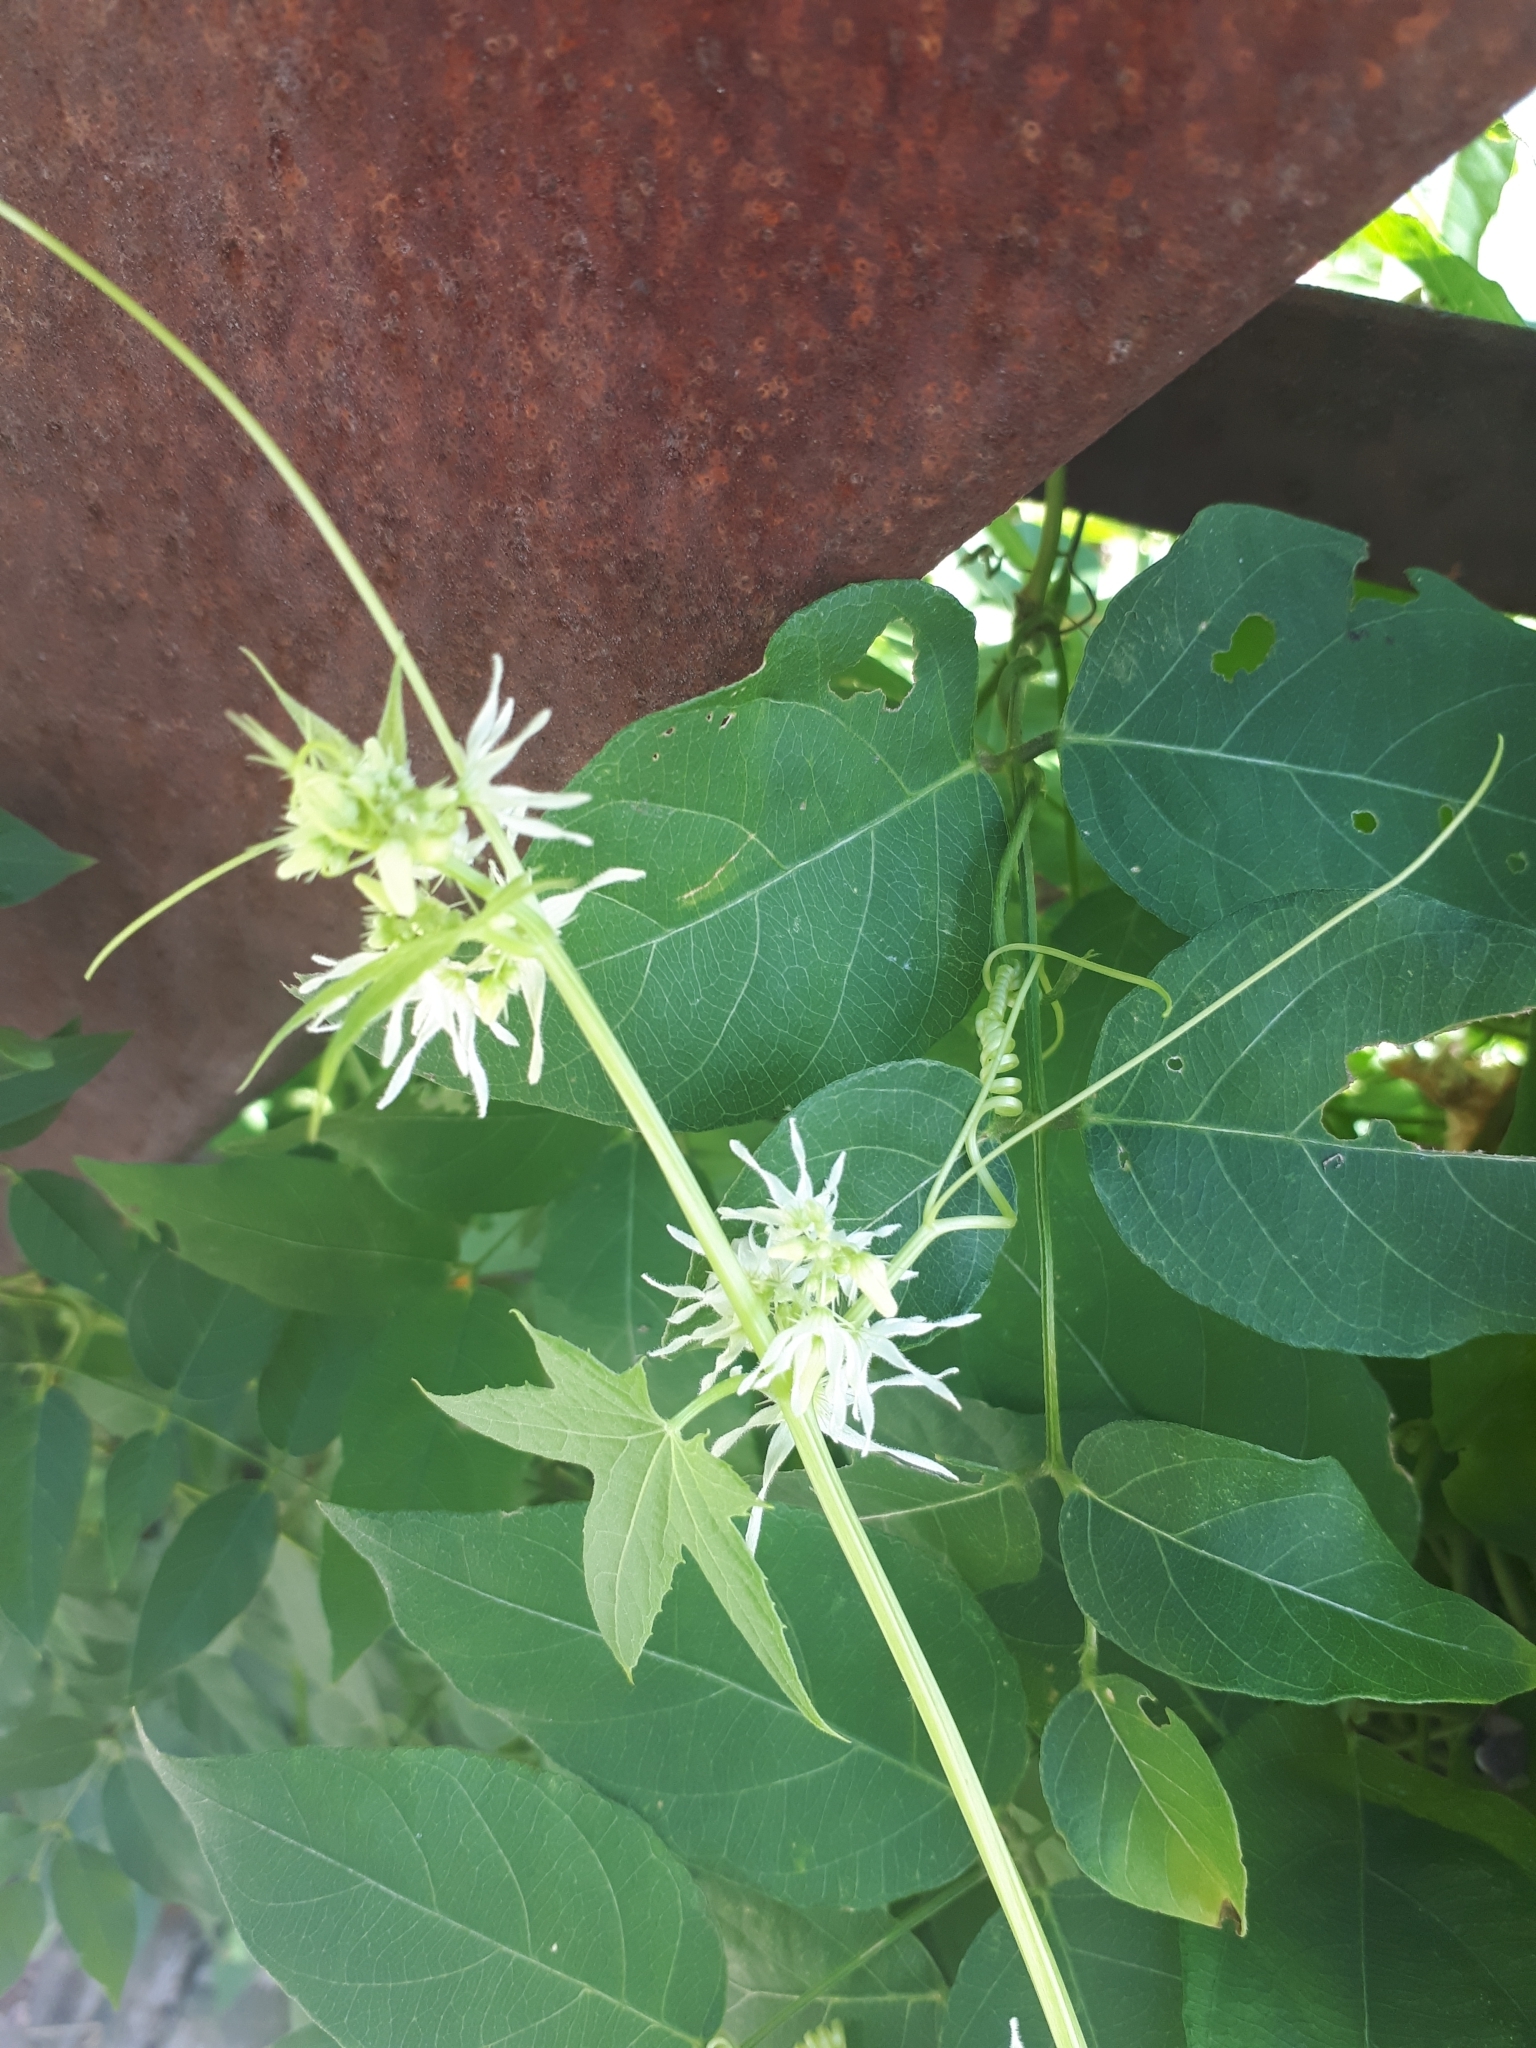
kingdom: Plantae
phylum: Tracheophyta
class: Magnoliopsida
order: Cucurbitales
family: Cucurbitaceae
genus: Echinocystis
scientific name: Echinocystis lobata
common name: Wild cucumber
